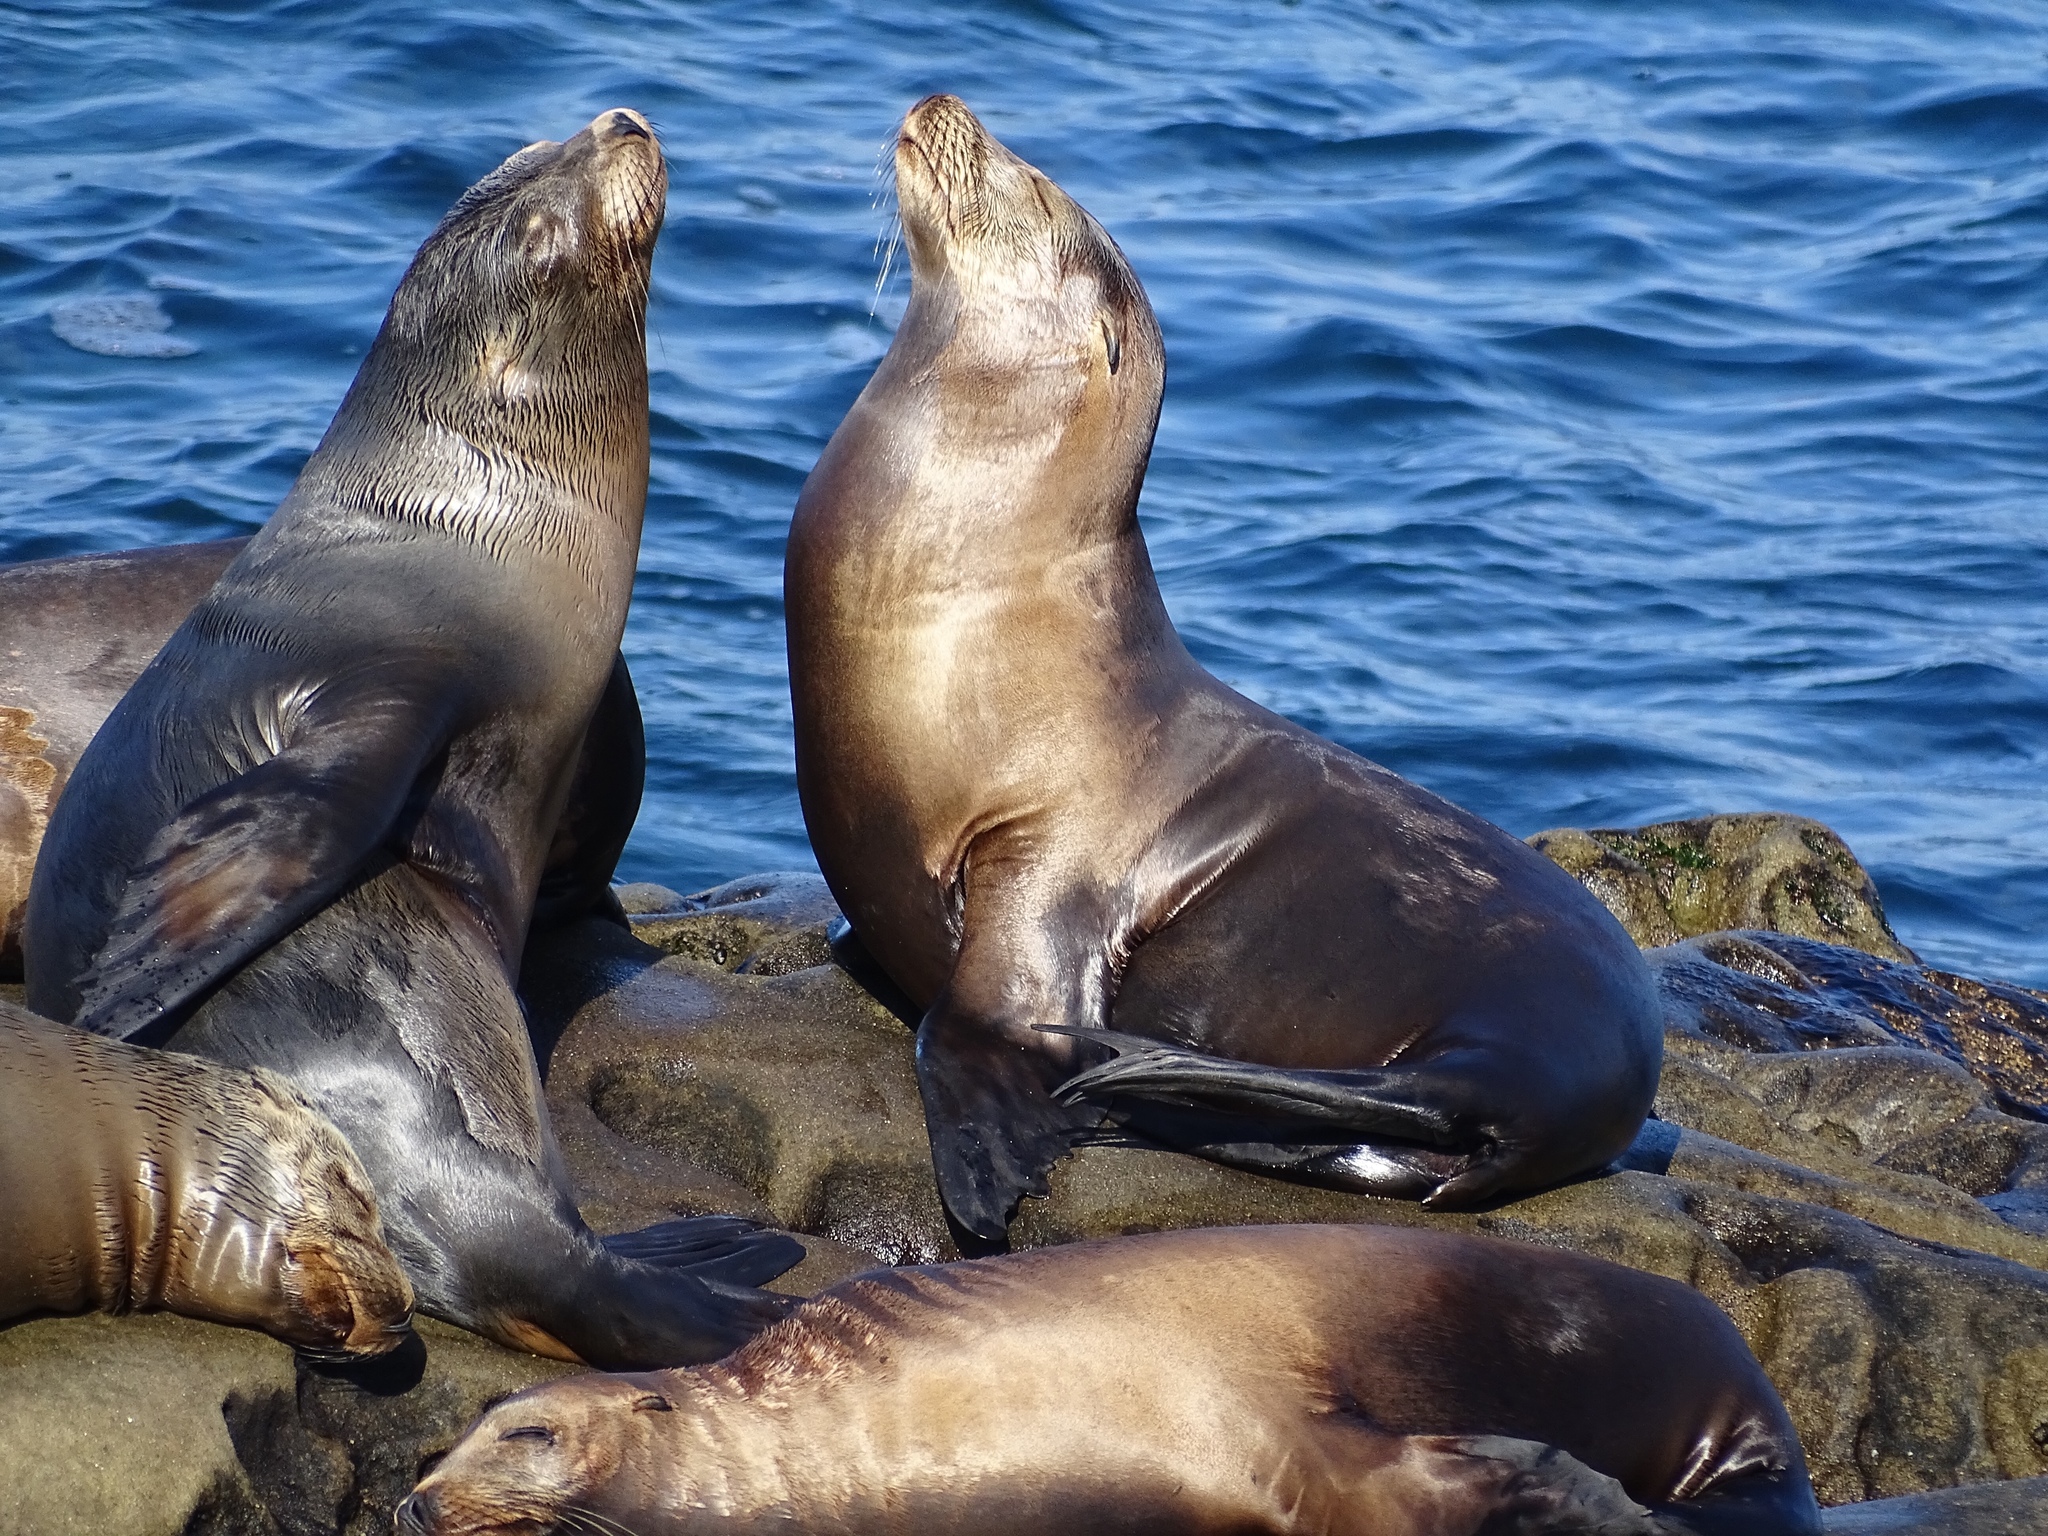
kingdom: Animalia
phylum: Chordata
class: Mammalia
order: Carnivora
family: Otariidae
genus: Zalophus
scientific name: Zalophus californianus
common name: California sea lion
